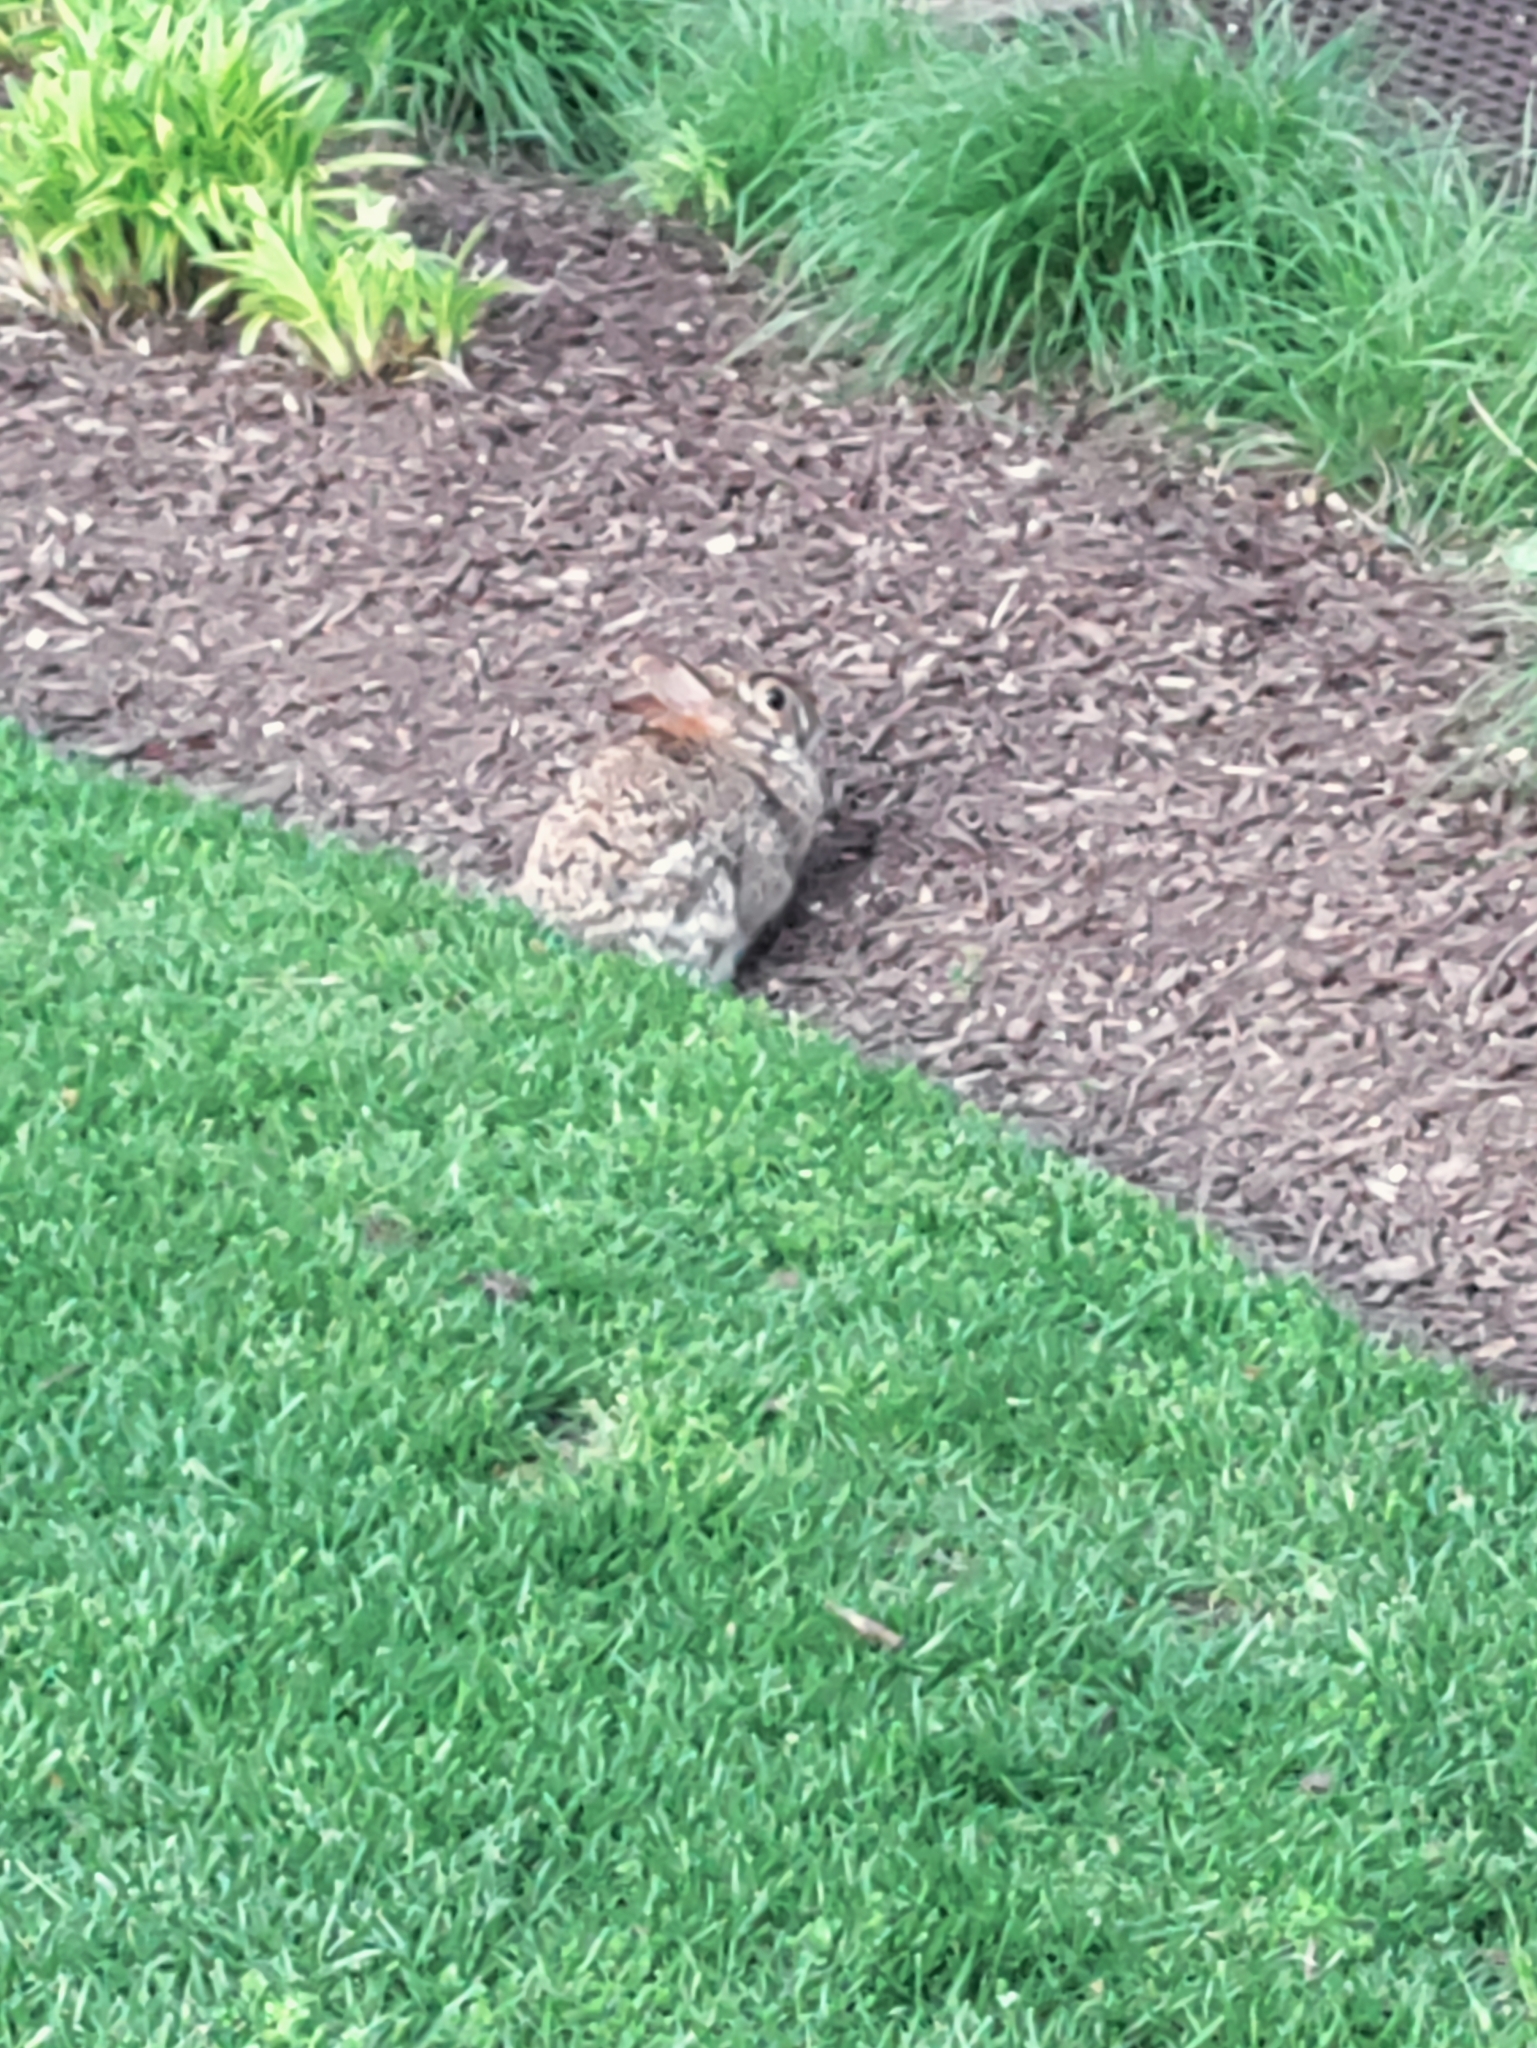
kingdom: Animalia
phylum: Chordata
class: Mammalia
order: Lagomorpha
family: Leporidae
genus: Sylvilagus
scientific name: Sylvilagus floridanus
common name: Eastern cottontail
